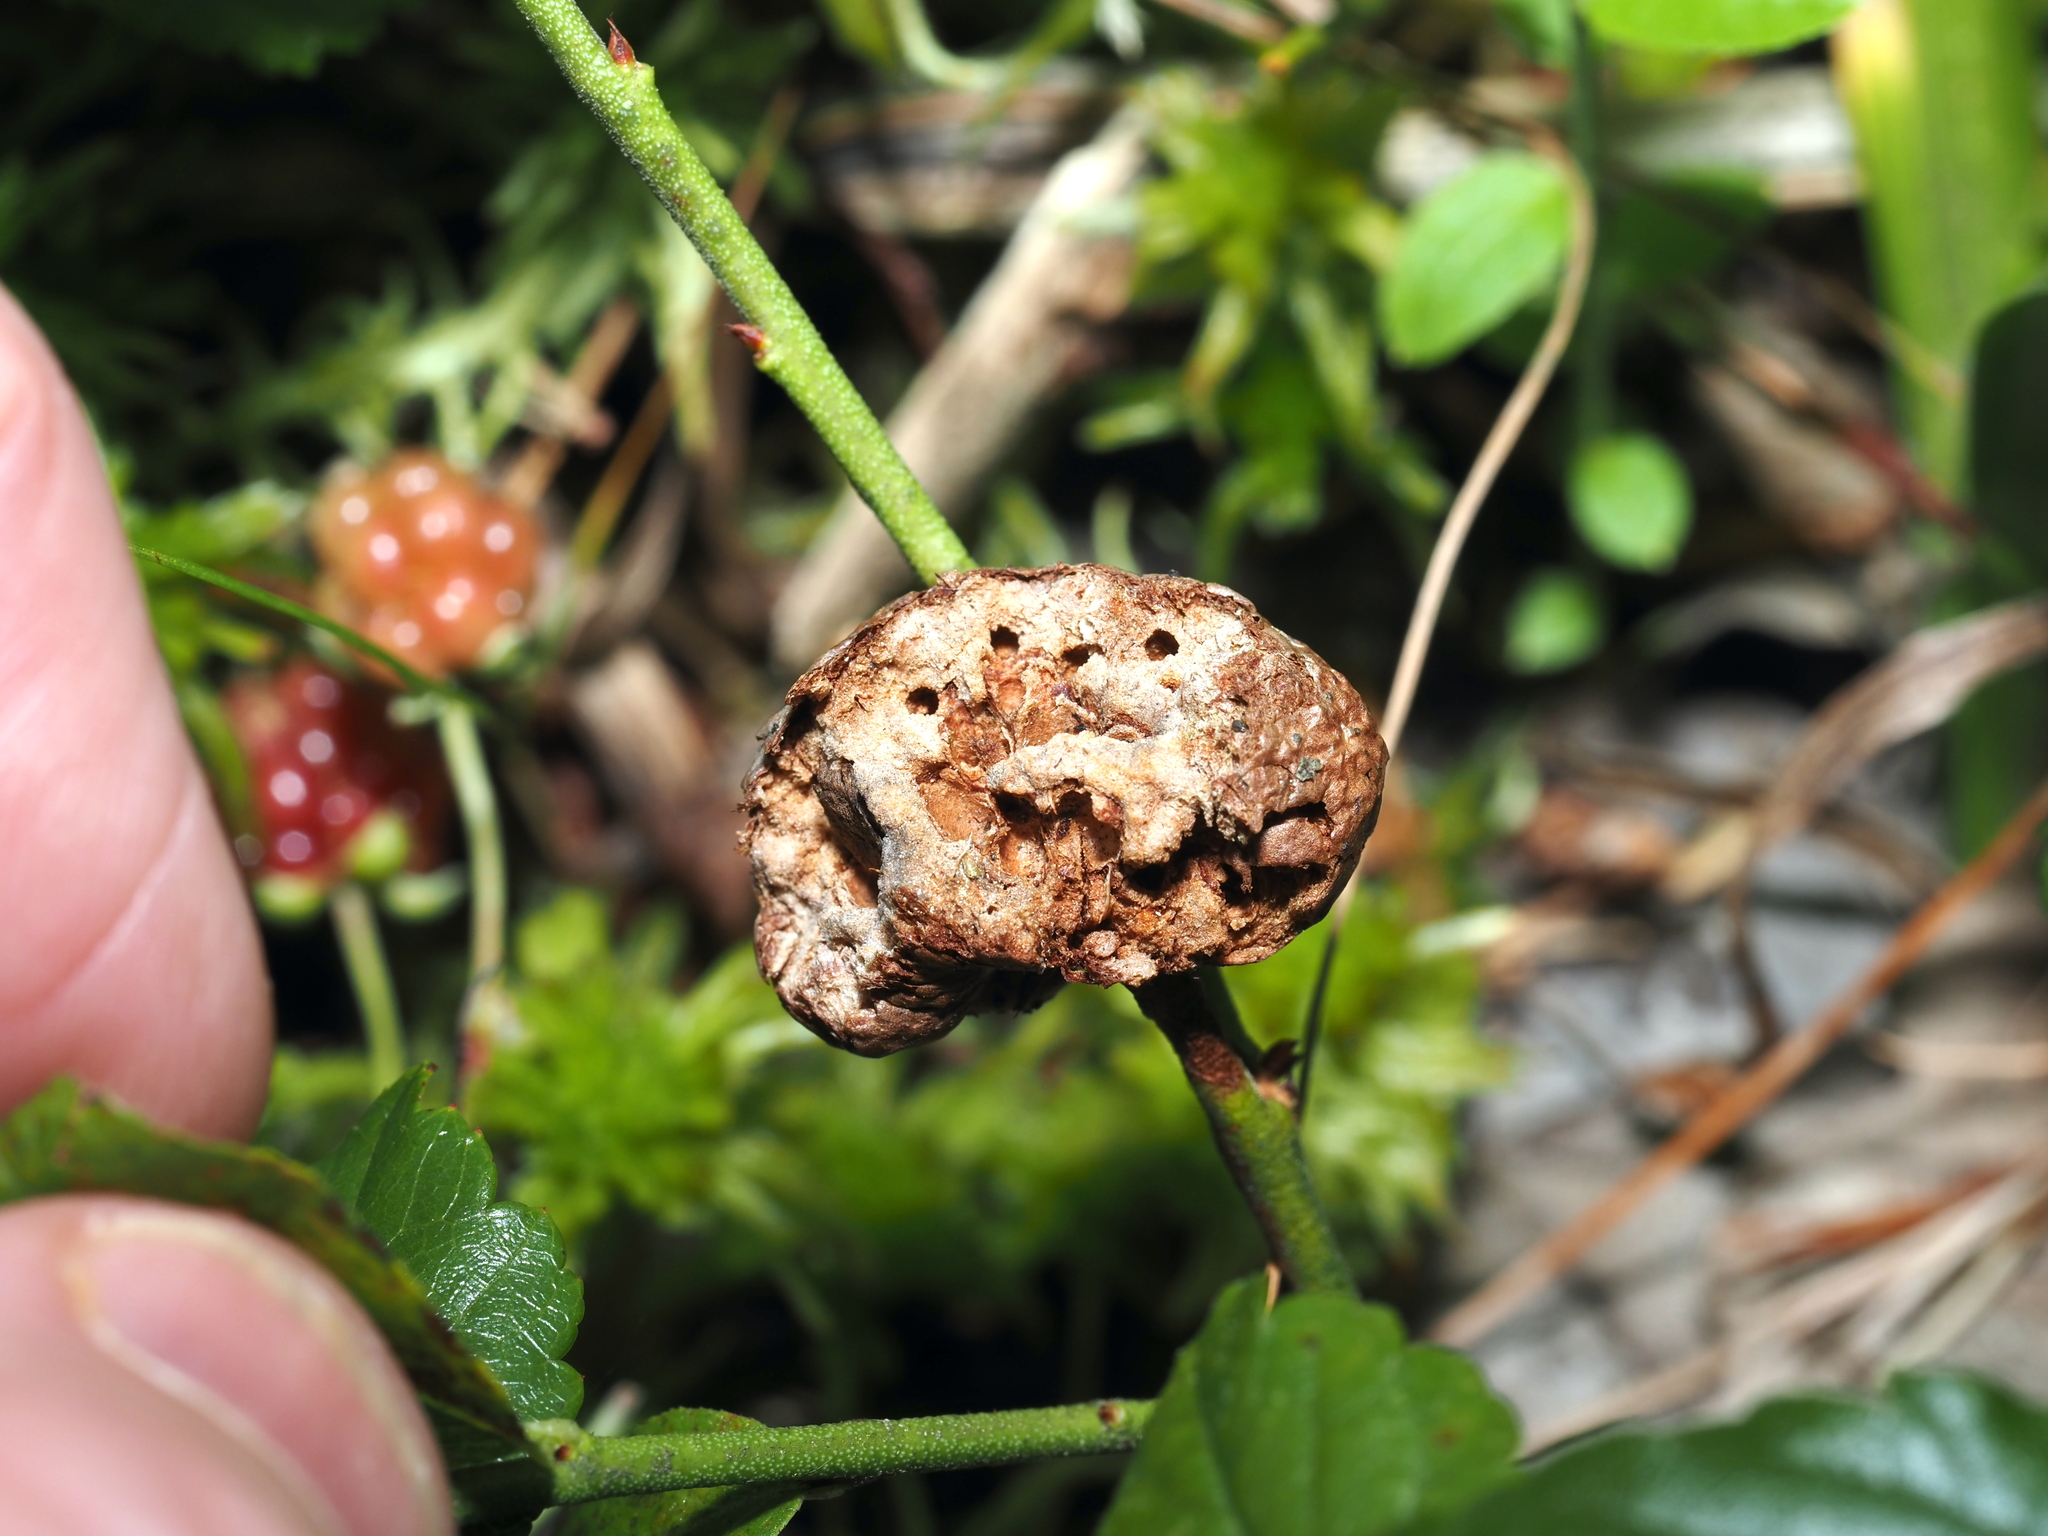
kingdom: Animalia
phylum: Arthropoda
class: Insecta
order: Hymenoptera
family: Pteromalidae
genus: Hemadas
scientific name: Hemadas nubilipennis
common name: Blueberry stem gall wasp
